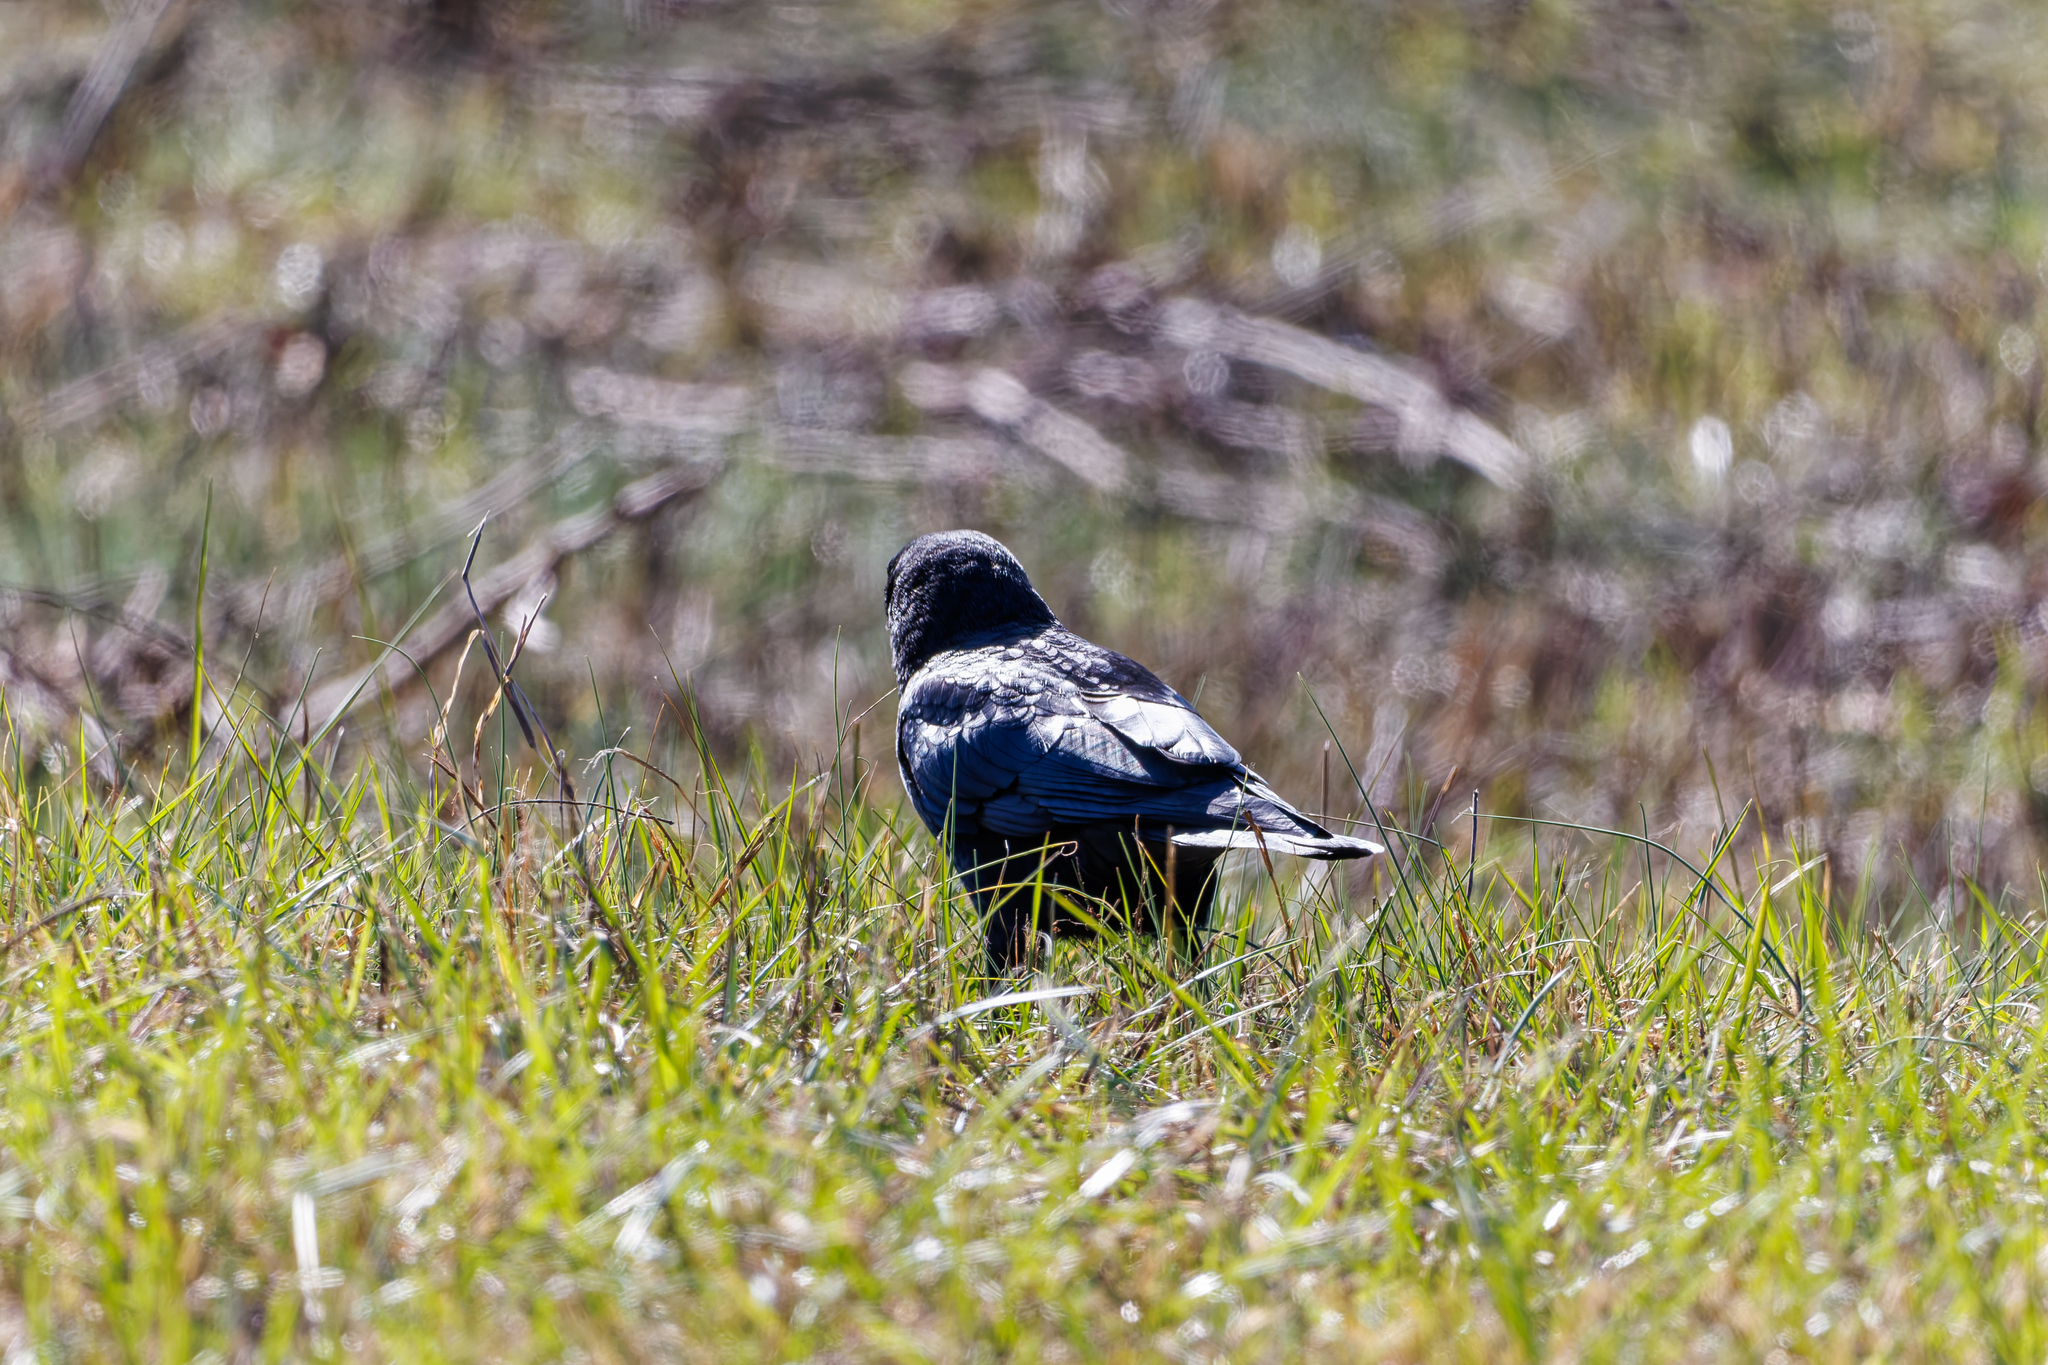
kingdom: Animalia
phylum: Chordata
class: Aves
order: Passeriformes
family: Corvidae
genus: Corvus
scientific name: Corvus brachyrhynchos
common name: American crow
